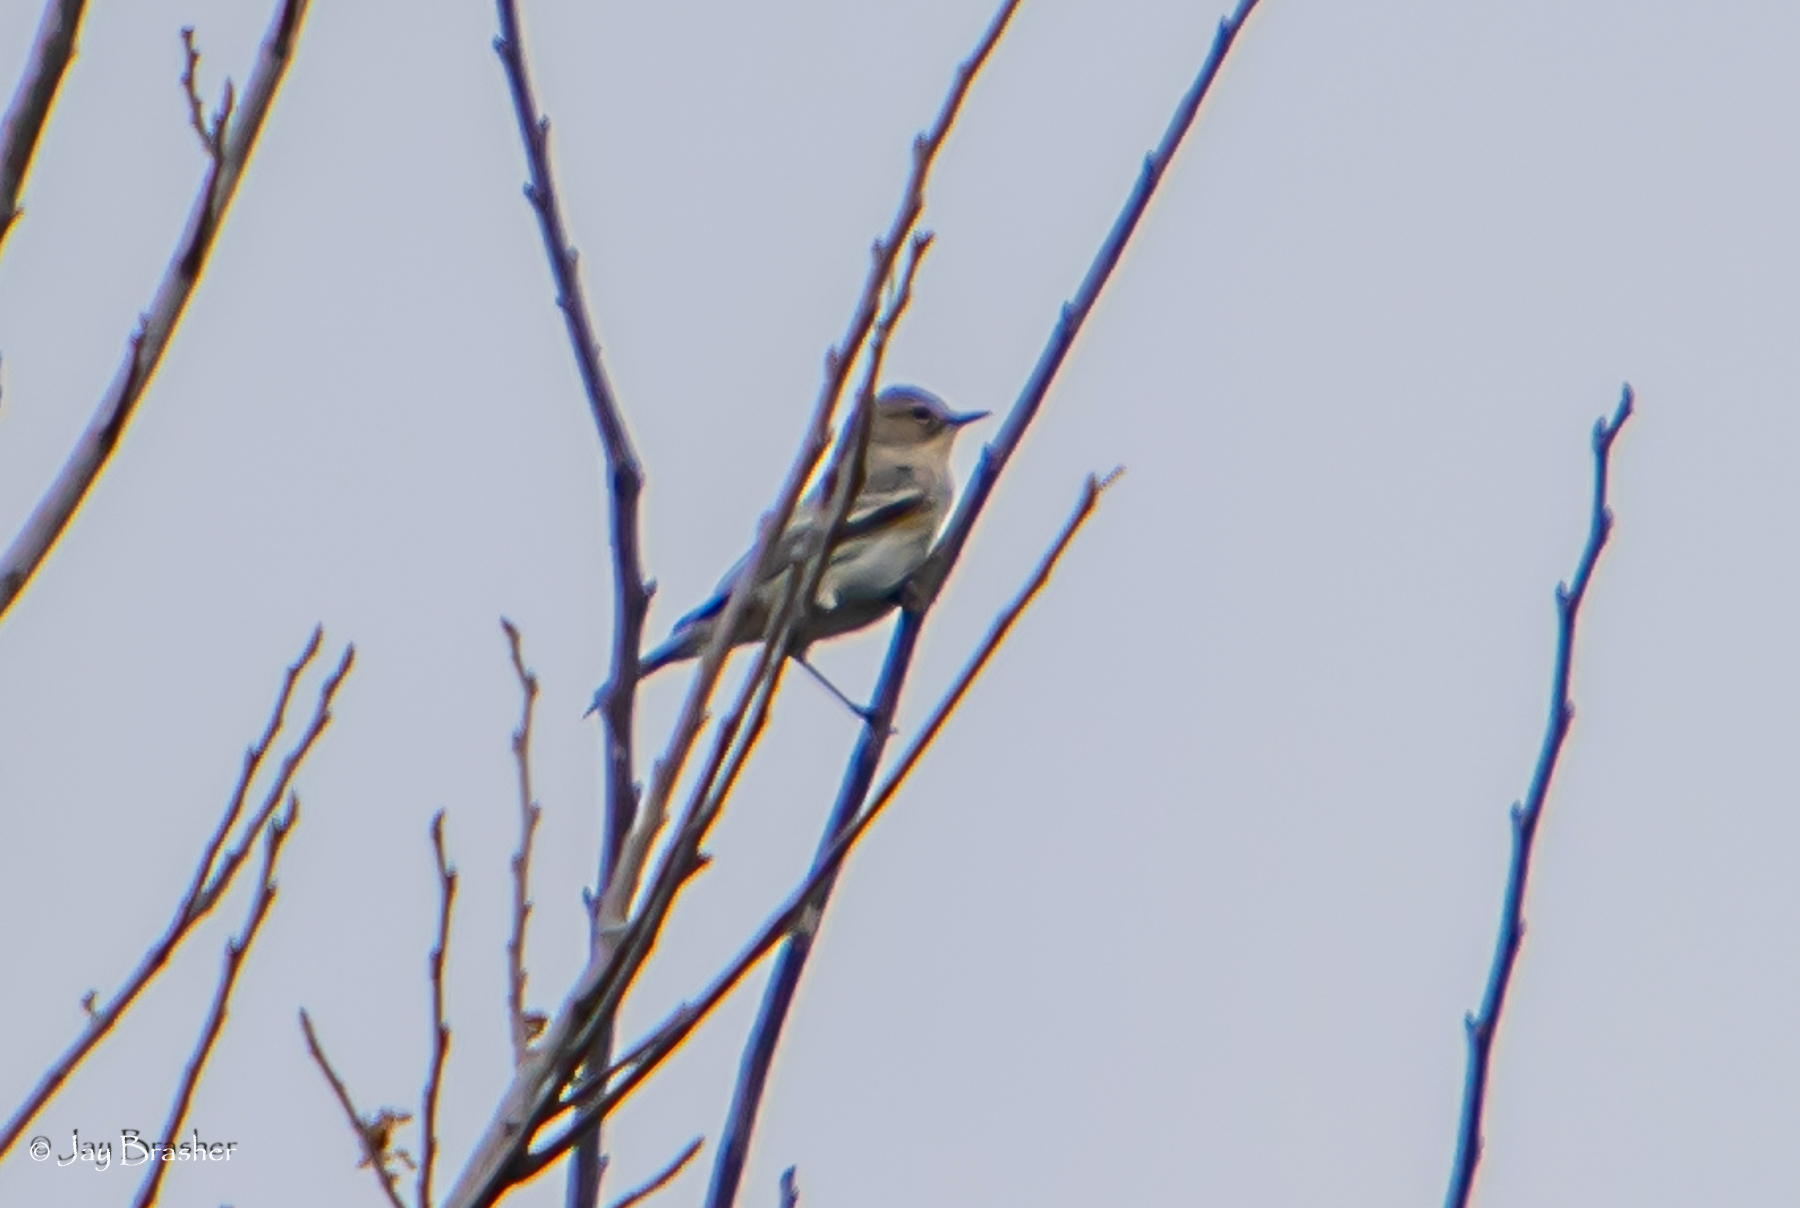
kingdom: Animalia
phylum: Chordata
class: Aves
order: Passeriformes
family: Parulidae
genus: Setophaga
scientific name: Setophaga coronata
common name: Myrtle warbler
